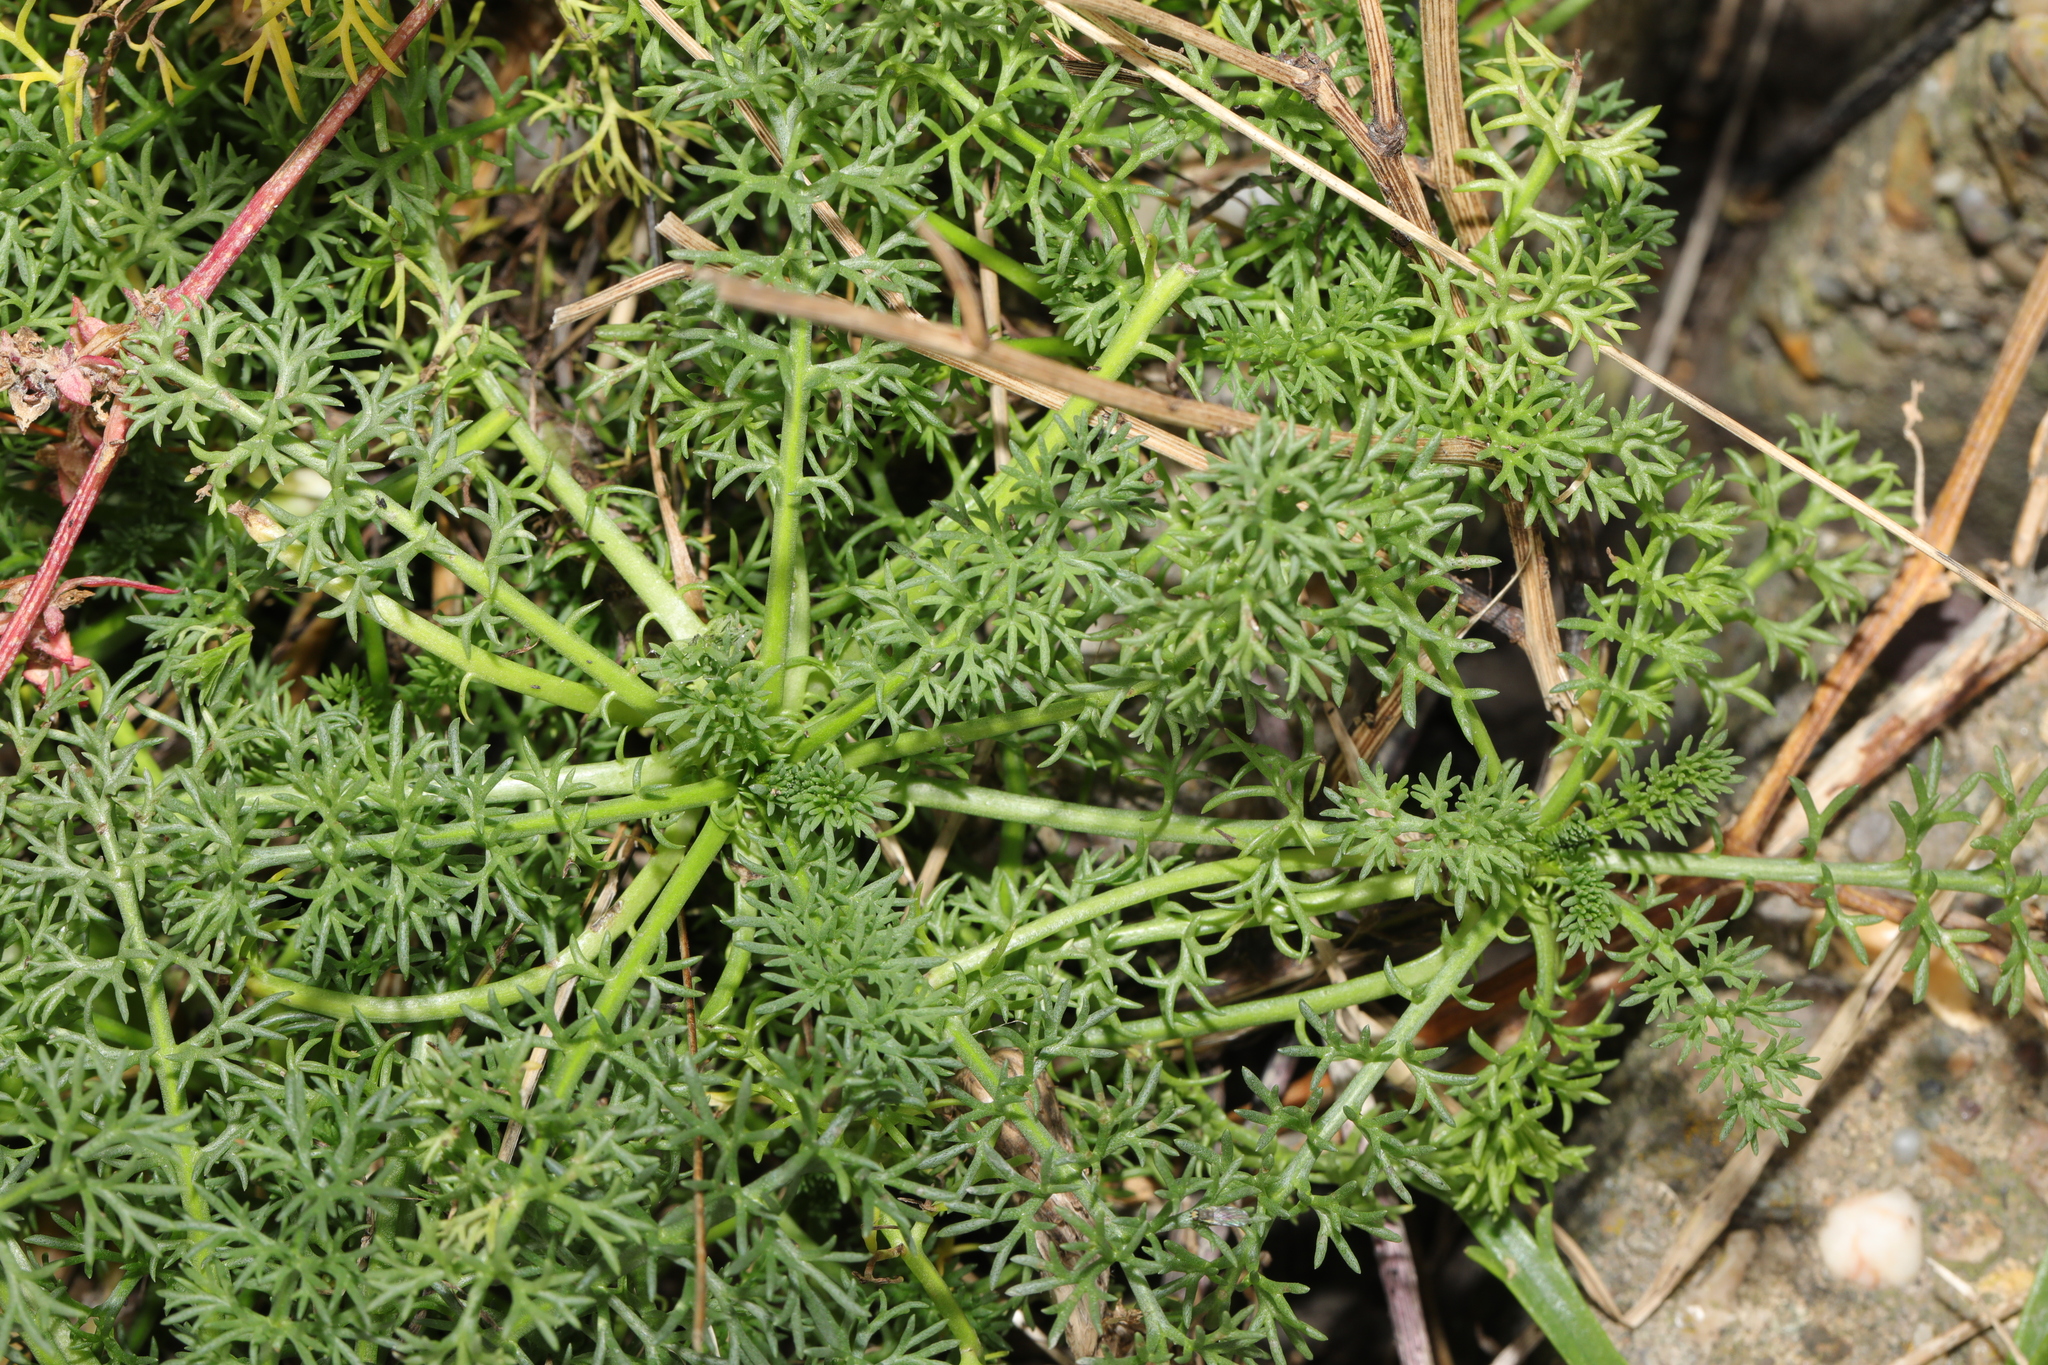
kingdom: Plantae
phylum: Tracheophyta
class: Magnoliopsida
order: Asterales
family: Asteraceae
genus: Tripleurospermum
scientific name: Tripleurospermum maritimum
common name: Sea mayweed
